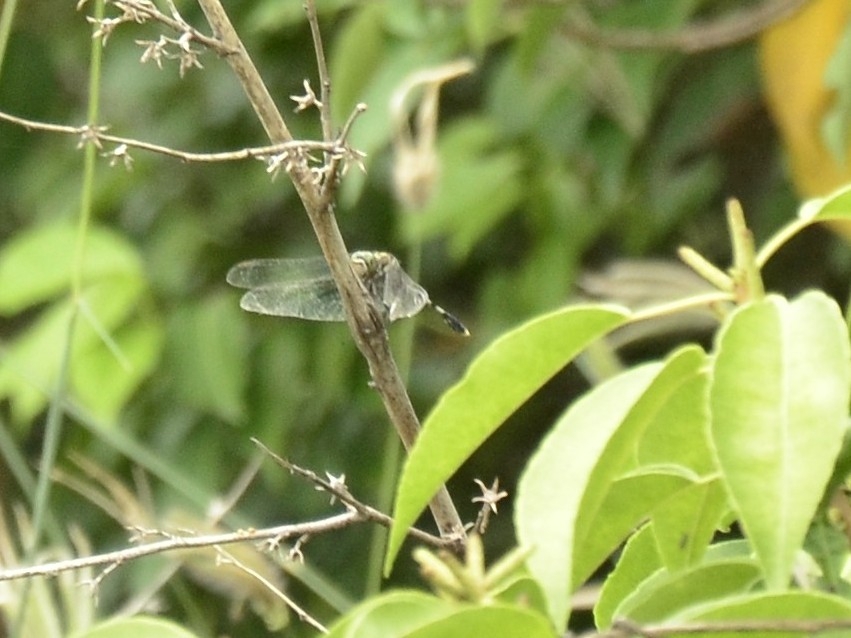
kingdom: Animalia
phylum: Arthropoda
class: Insecta
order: Odonata
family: Libellulidae
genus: Orthetrum
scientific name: Orthetrum sabina
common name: Slender skimmer
